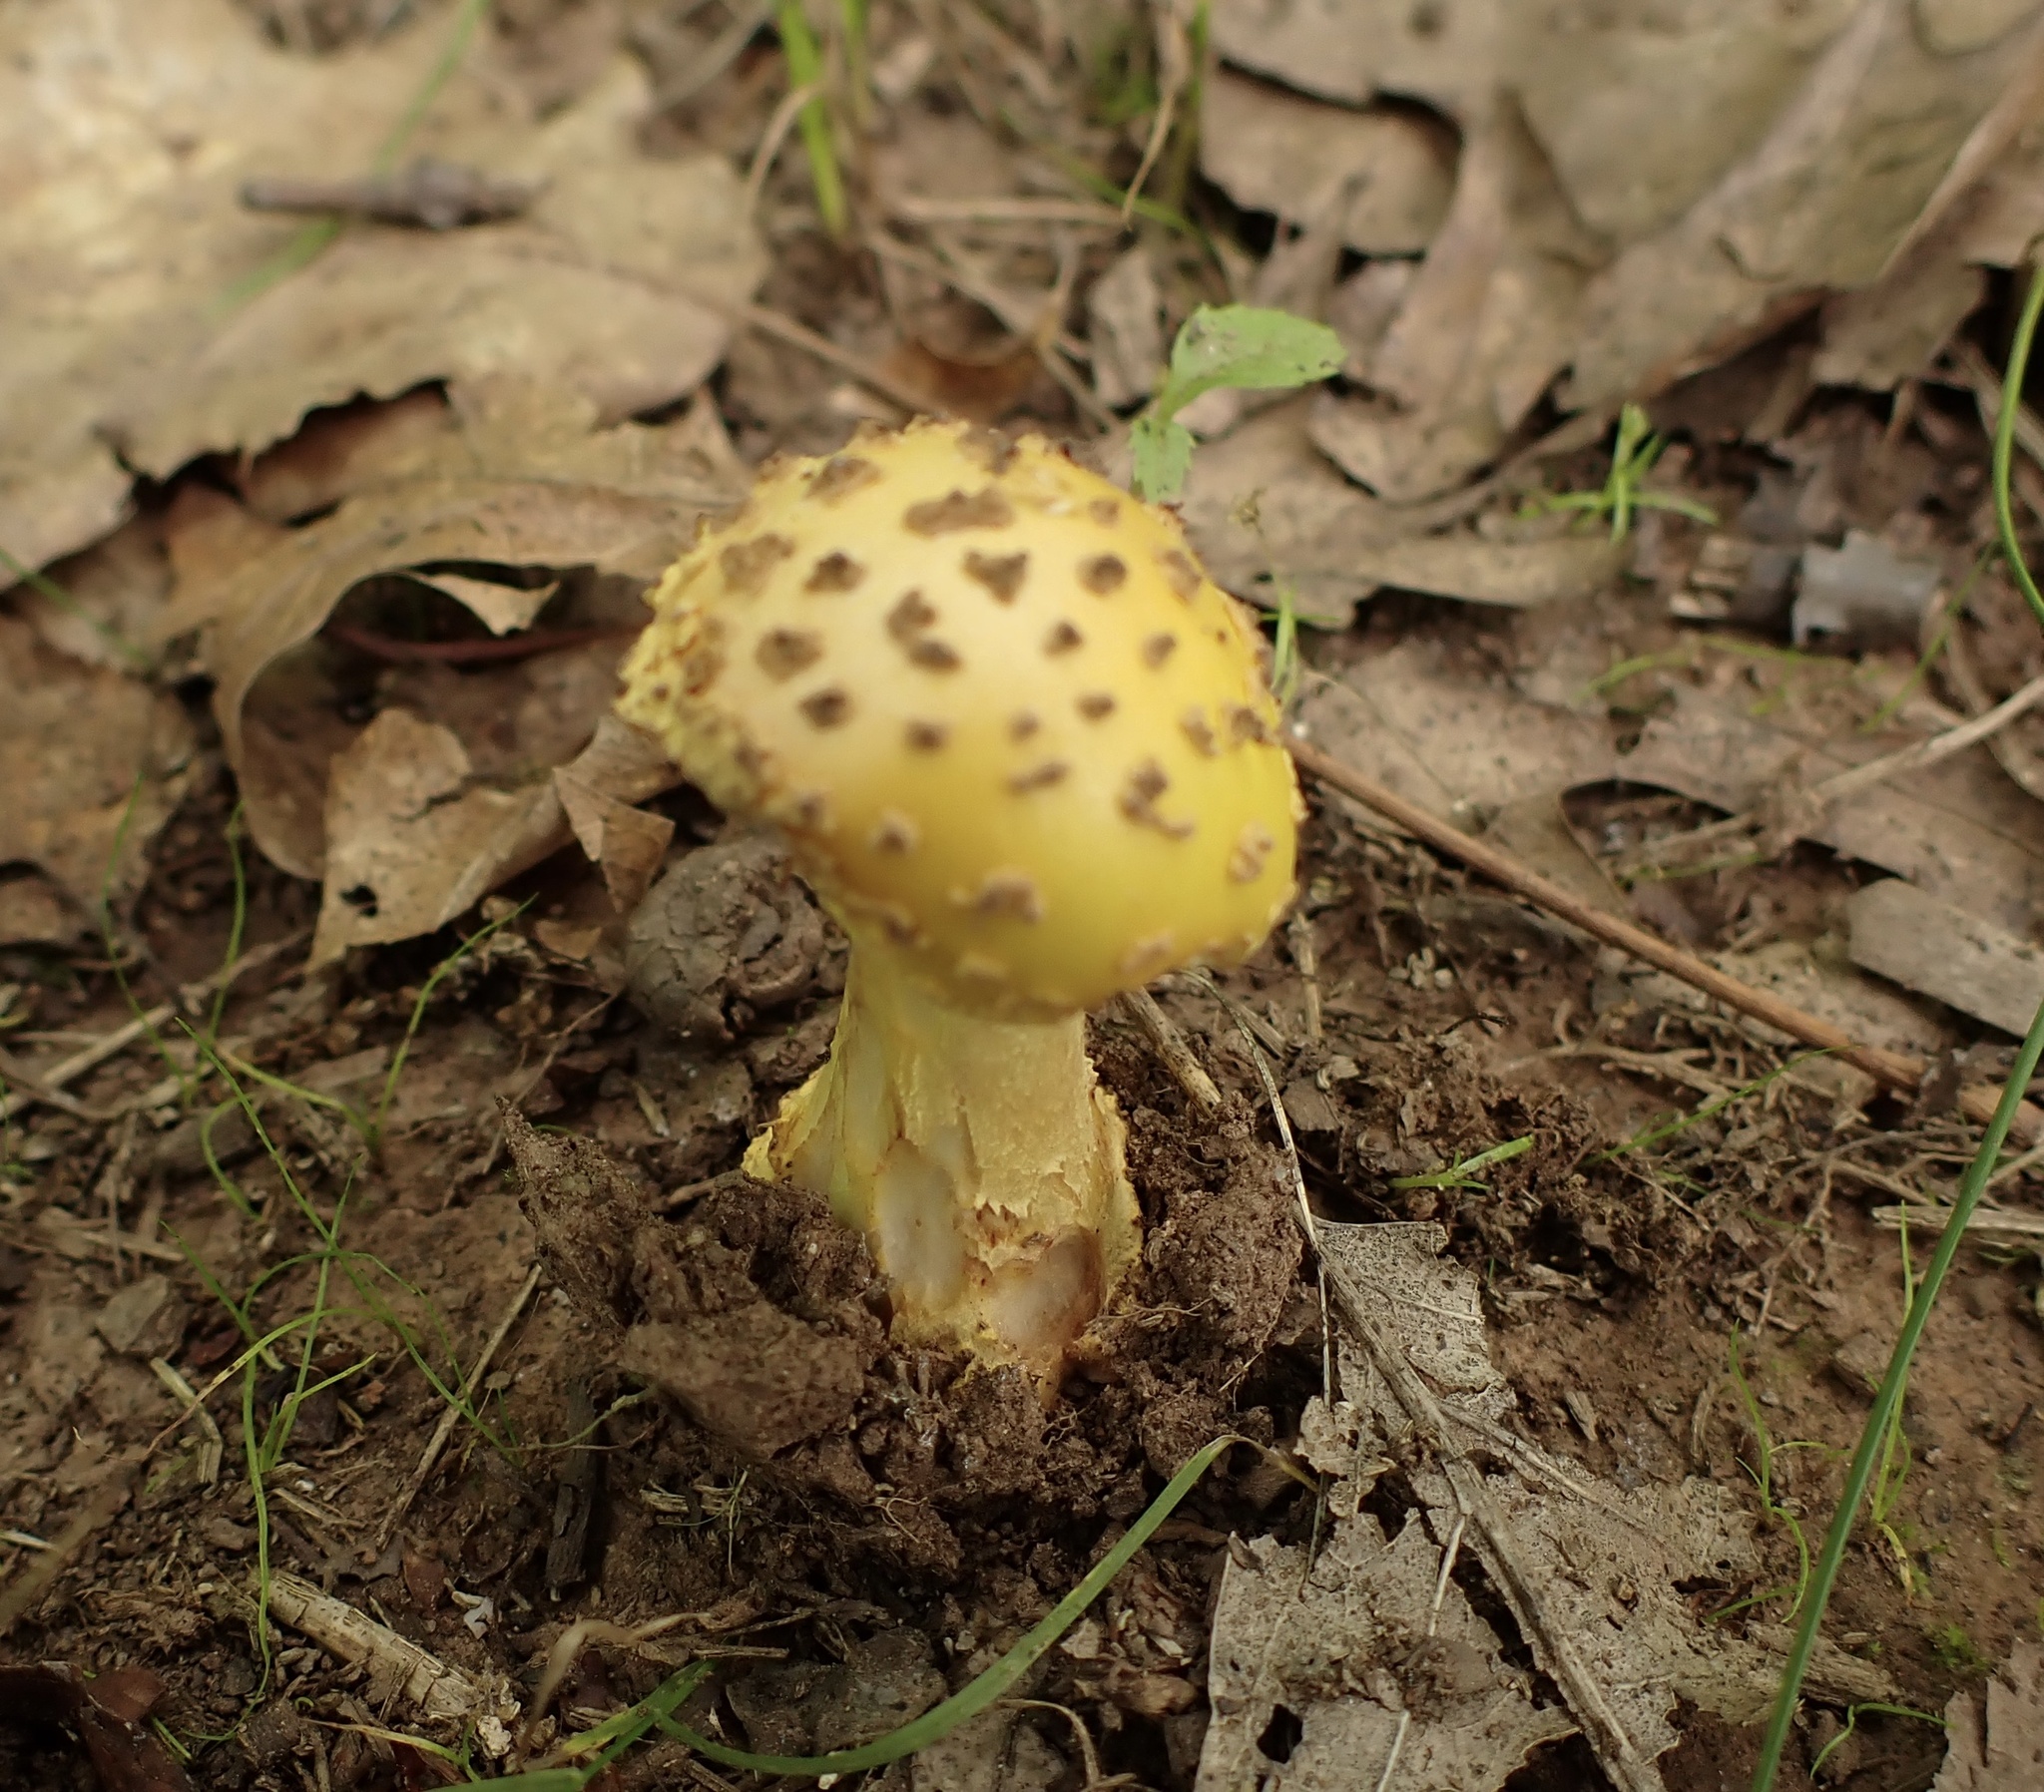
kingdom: Fungi
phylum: Basidiomycota
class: Agaricomycetes
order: Agaricales
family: Amanitaceae
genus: Amanita
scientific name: Amanita flavorubens
